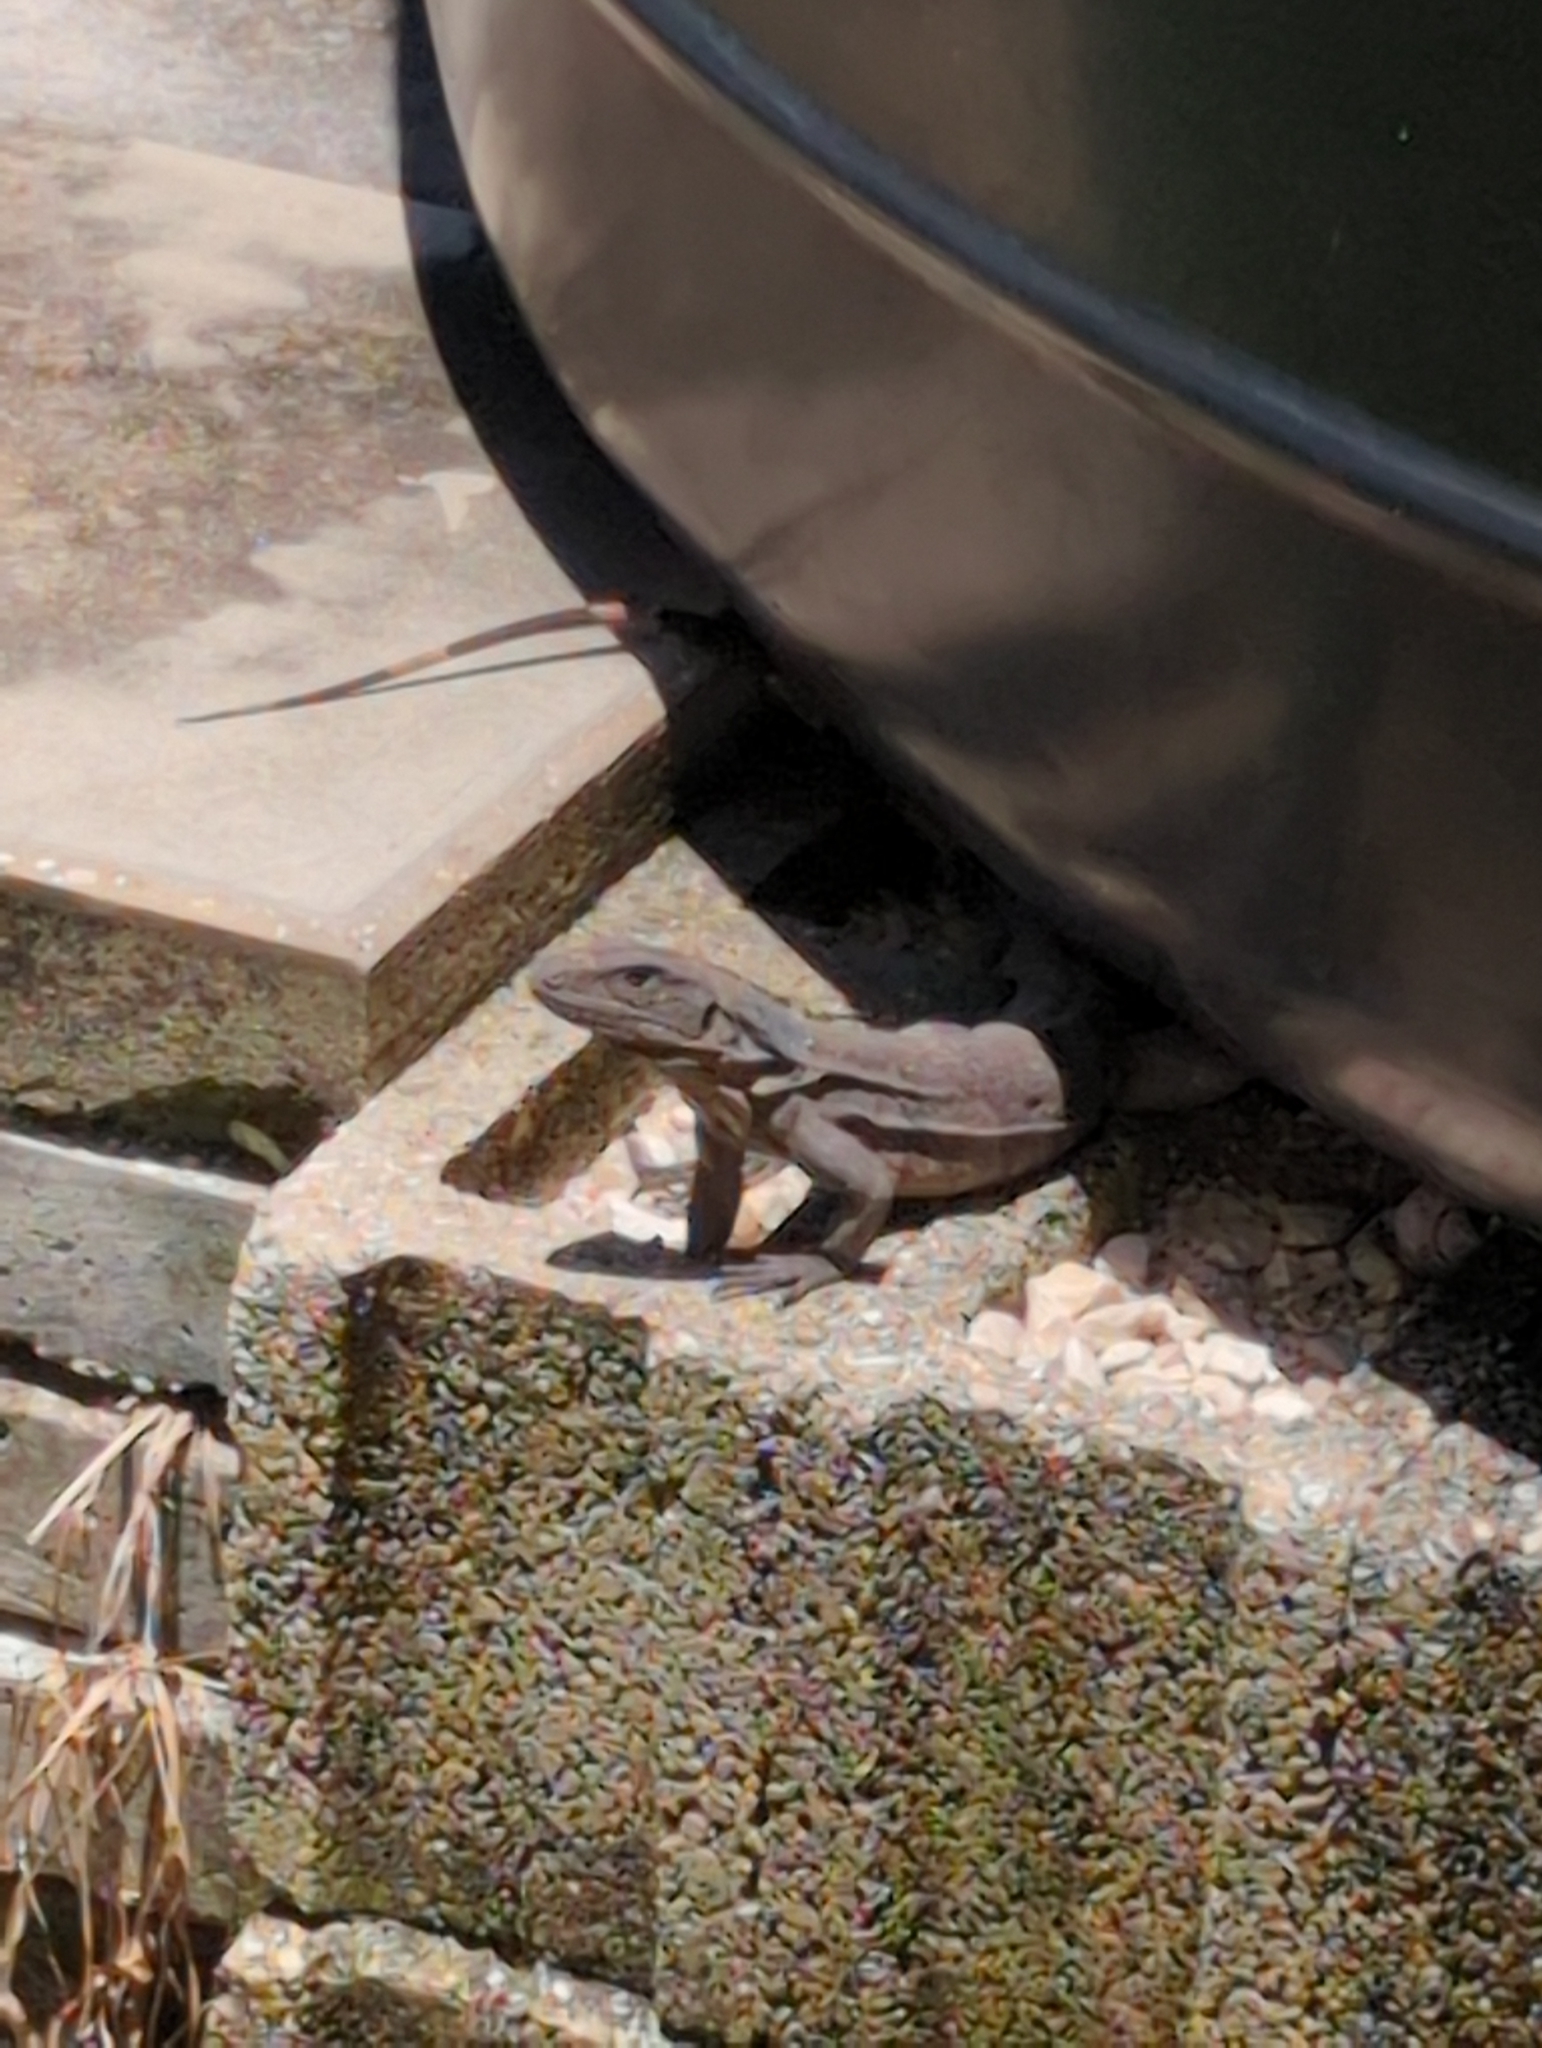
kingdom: Animalia
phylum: Chordata
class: Squamata
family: Iguanidae
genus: Ctenosaura
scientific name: Ctenosaura similis
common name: Black spiny-tailed iguana
